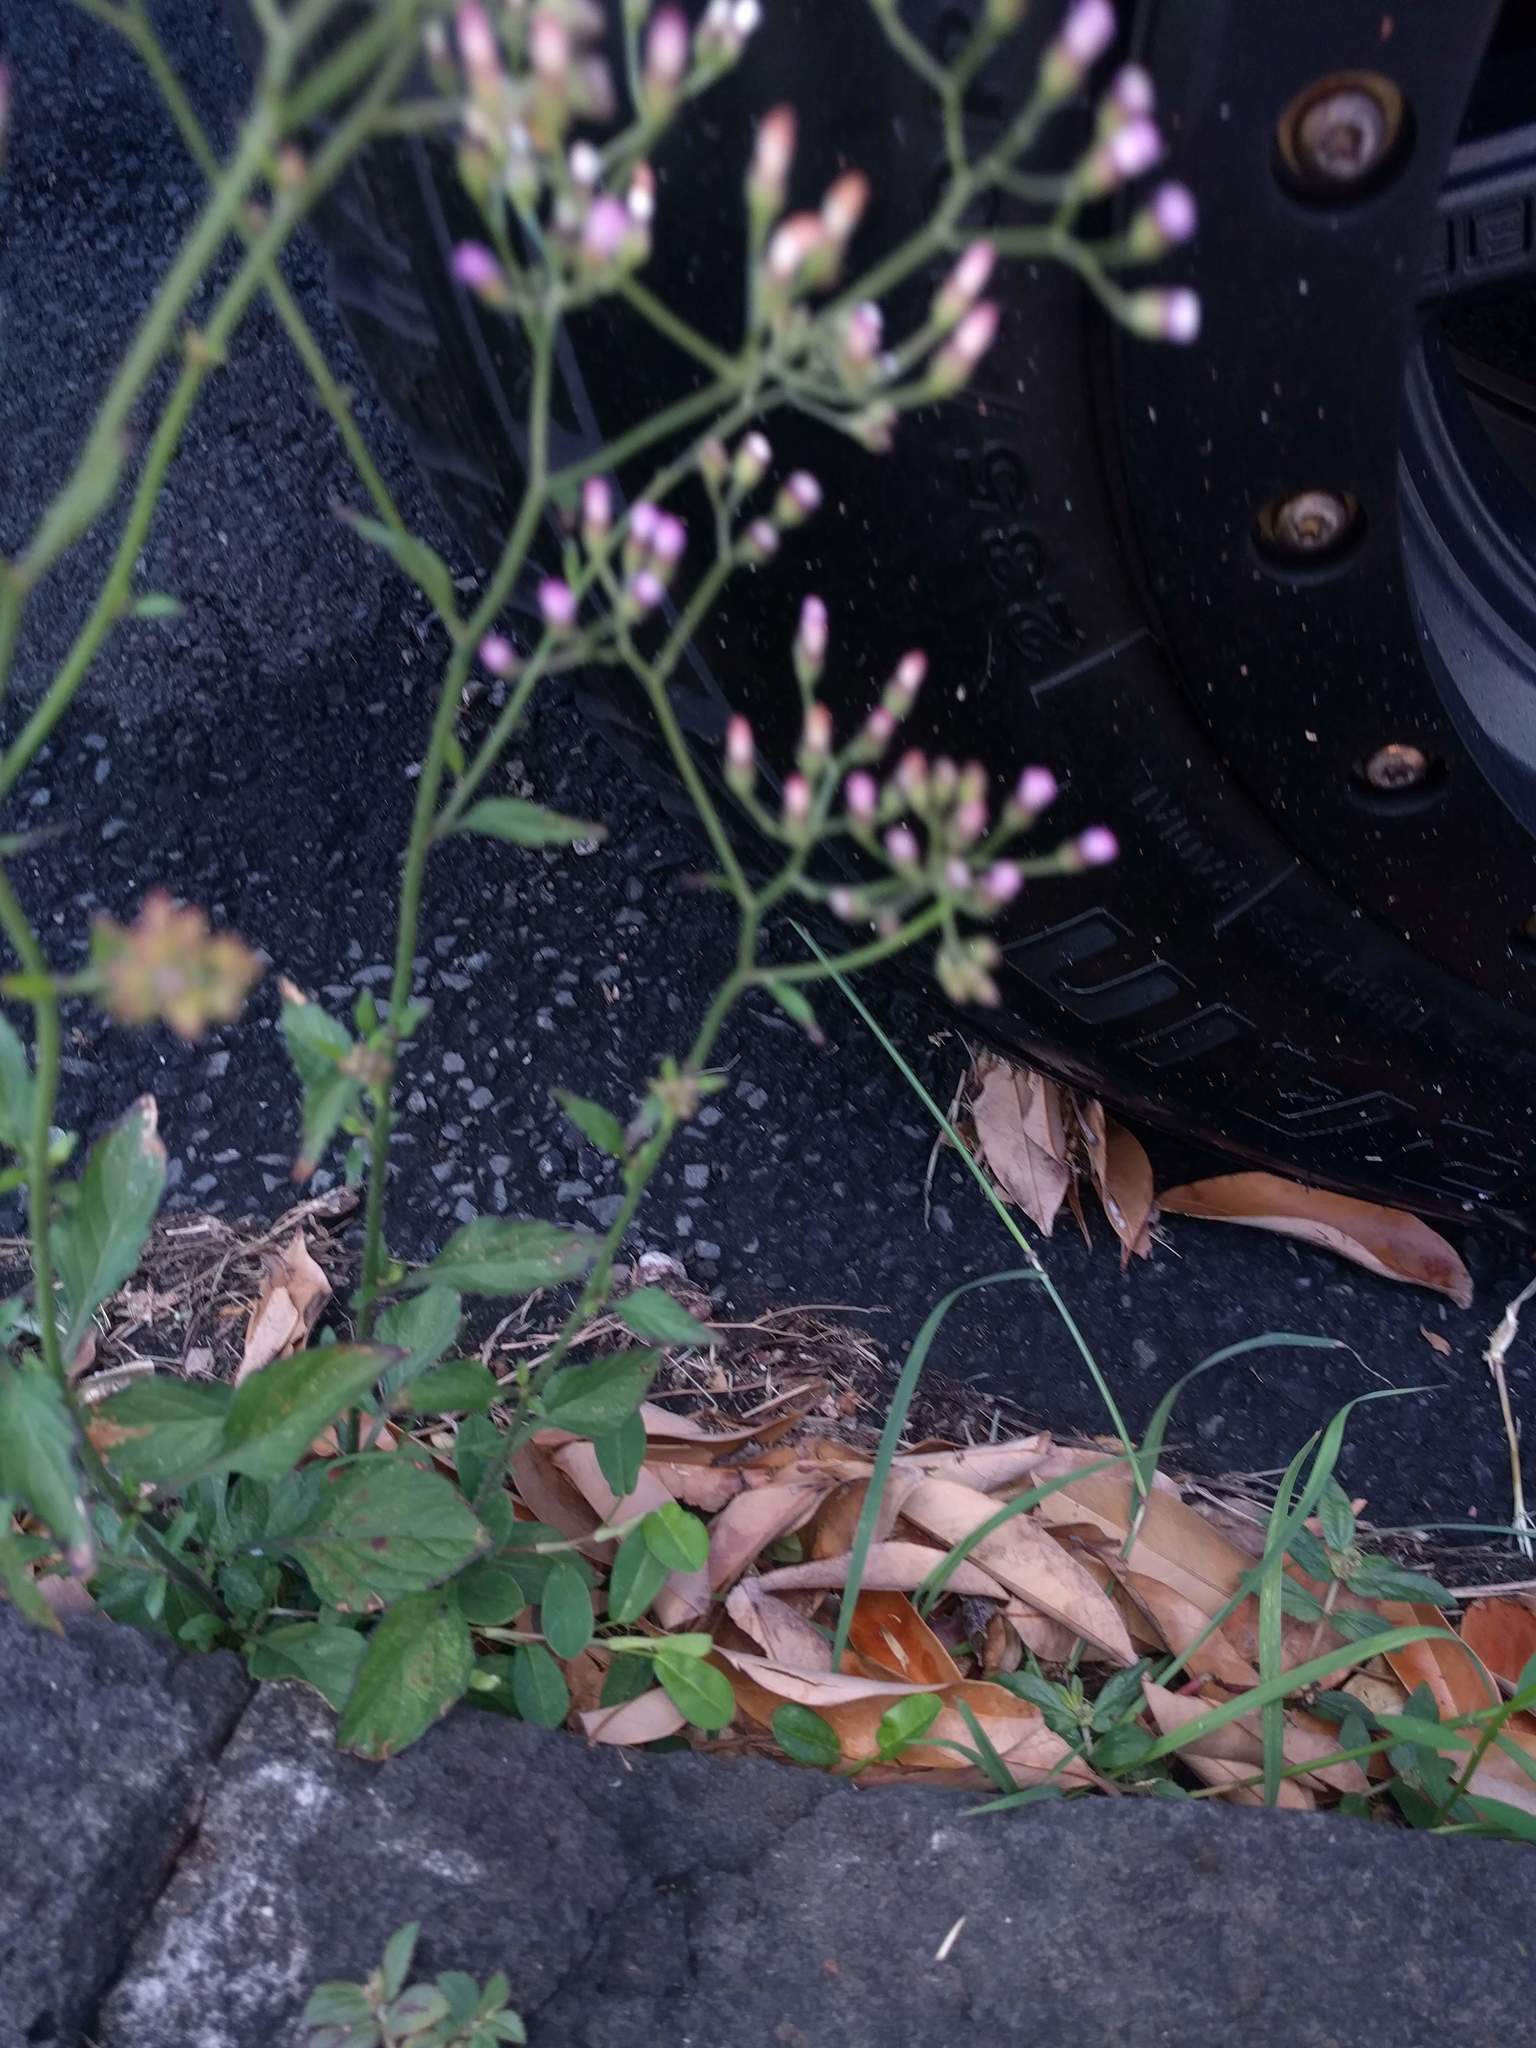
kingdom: Plantae
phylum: Tracheophyta
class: Magnoliopsida
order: Asterales
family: Asteraceae
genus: Cyanthillium
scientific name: Cyanthillium cinereum
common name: Little ironweed
